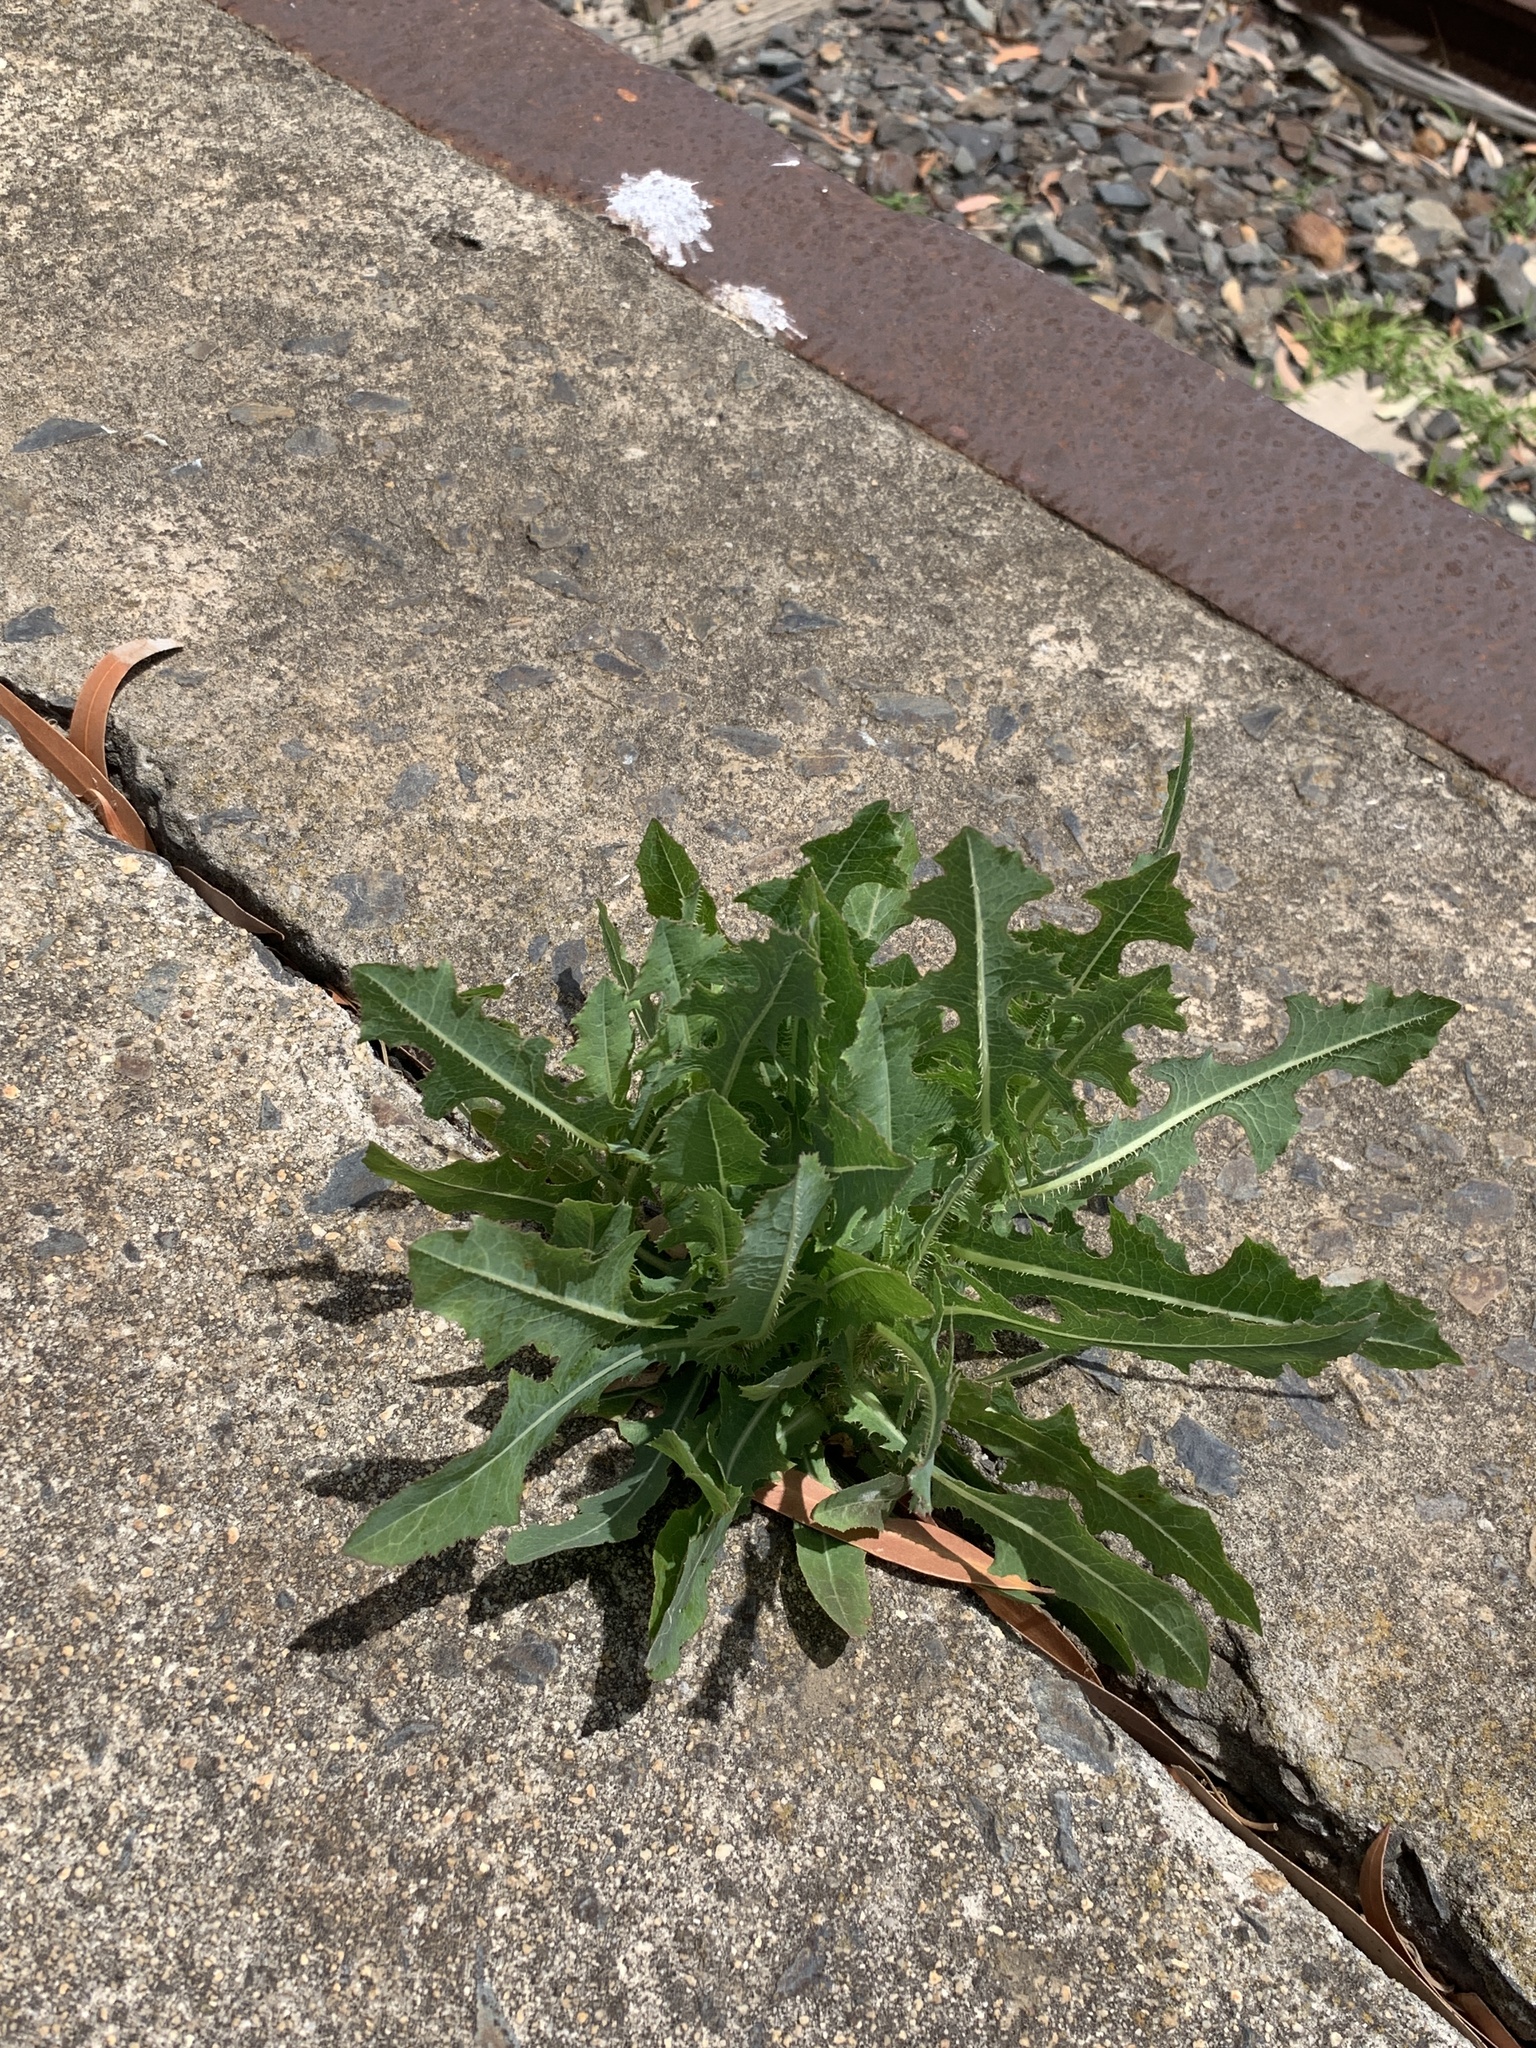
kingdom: Plantae
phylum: Tracheophyta
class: Magnoliopsida
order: Asterales
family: Asteraceae
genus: Lactuca
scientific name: Lactuca serriola
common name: Prickly lettuce
